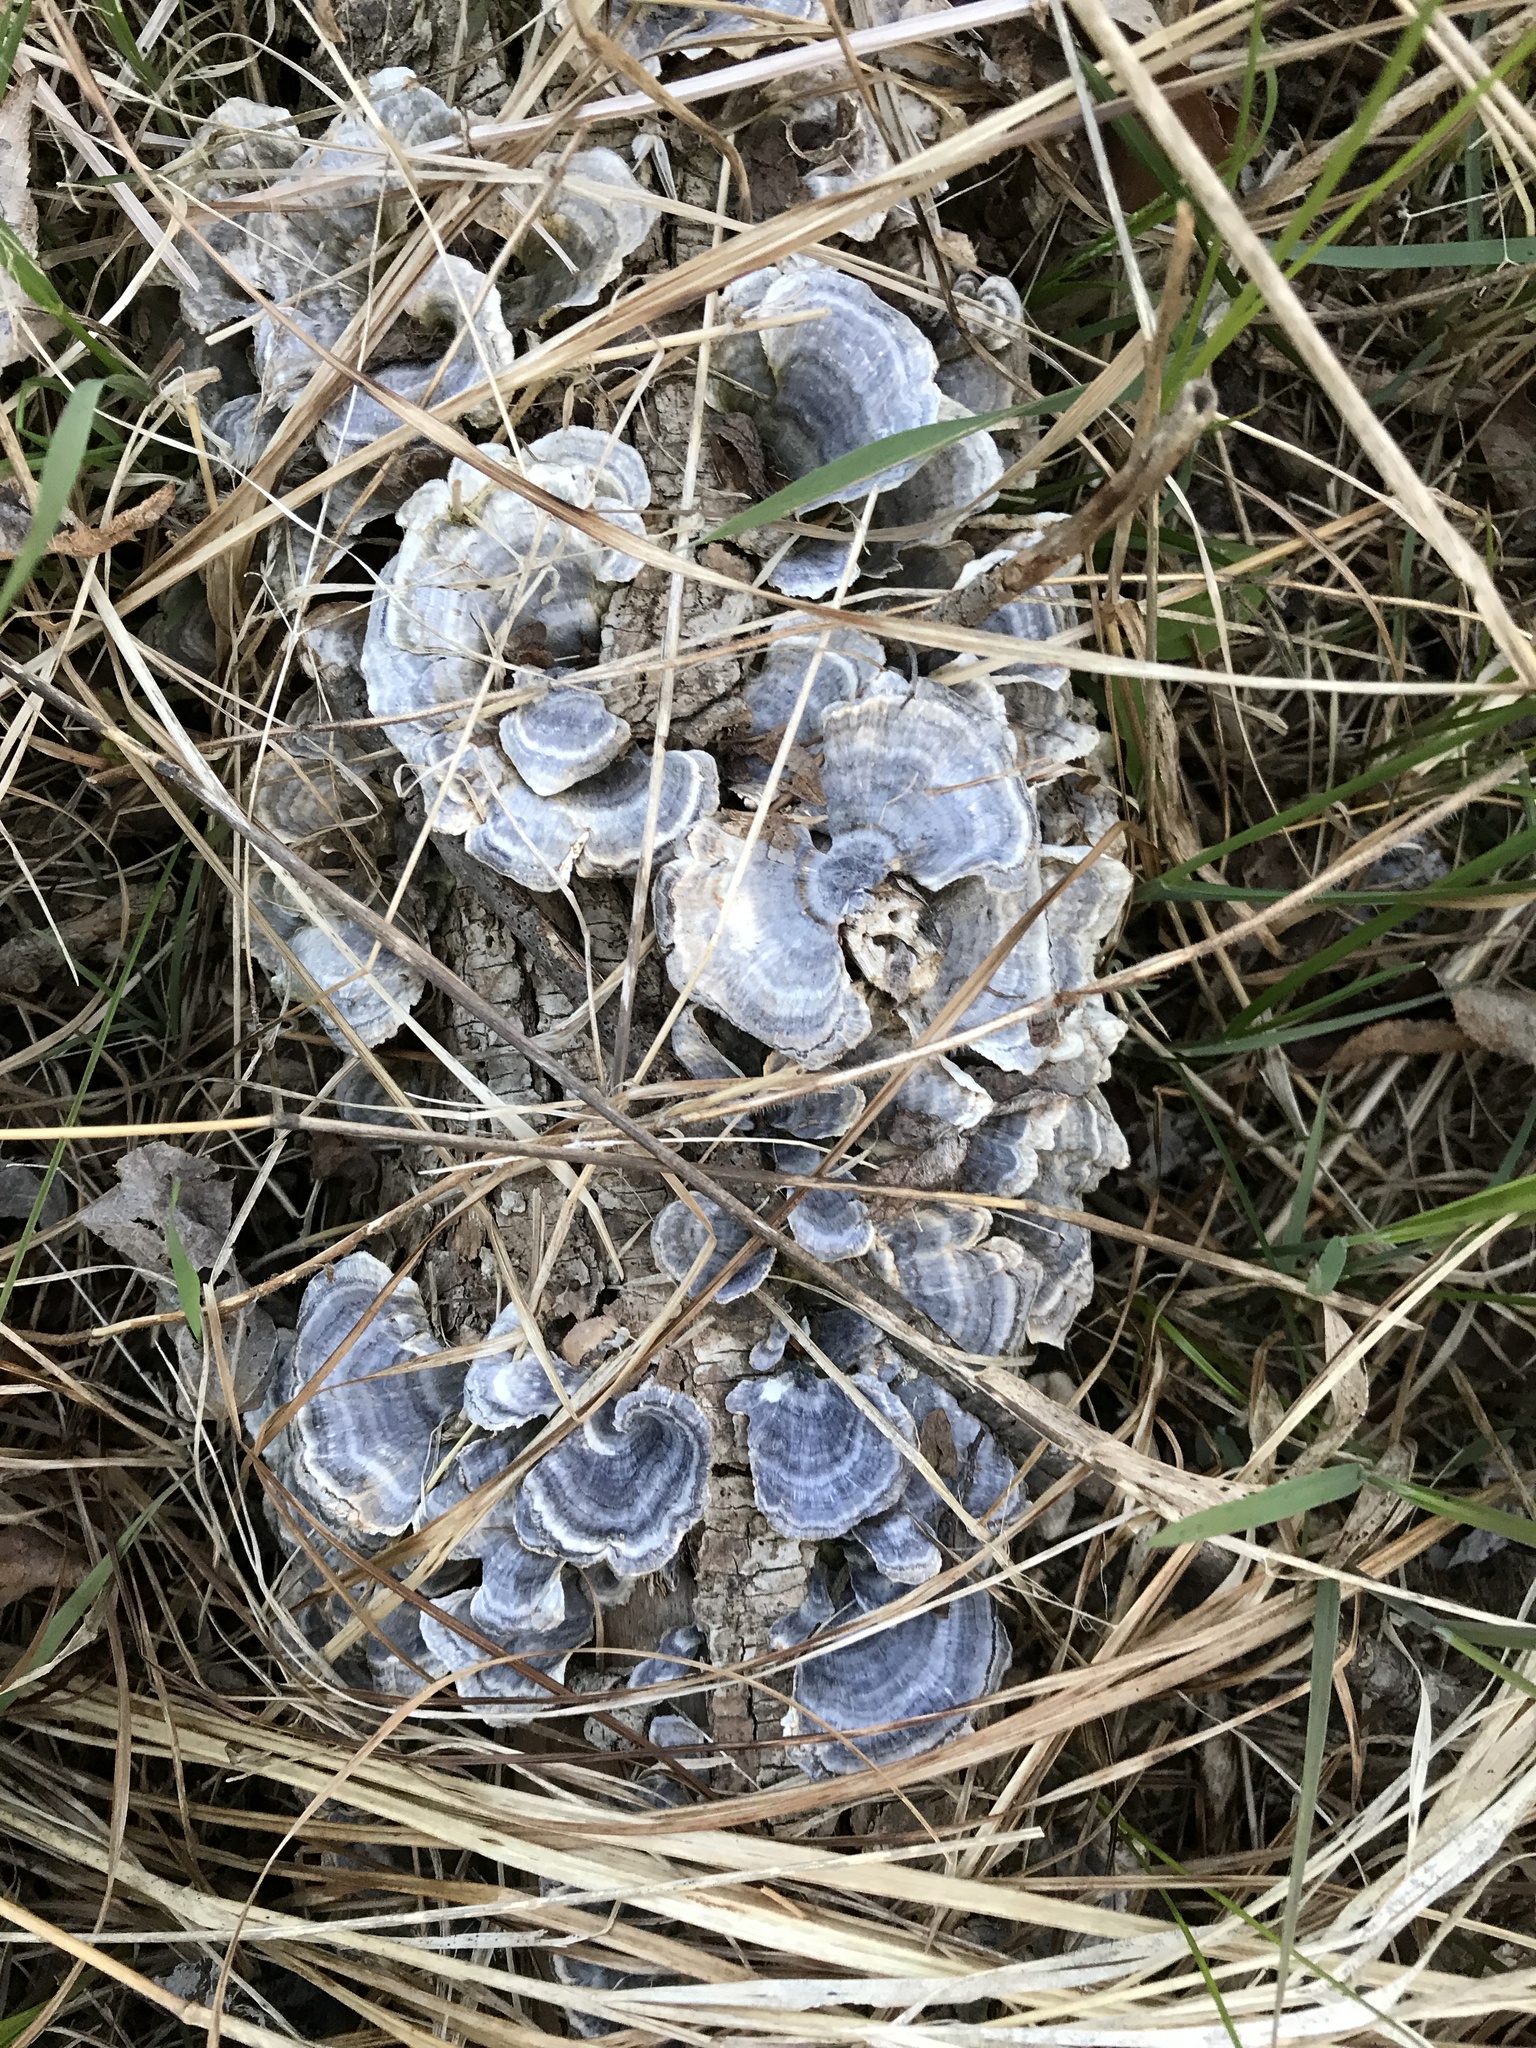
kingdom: Fungi
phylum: Basidiomycota
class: Agaricomycetes
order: Polyporales
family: Polyporaceae
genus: Trametes
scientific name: Trametes versicolor
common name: Turkeytail
